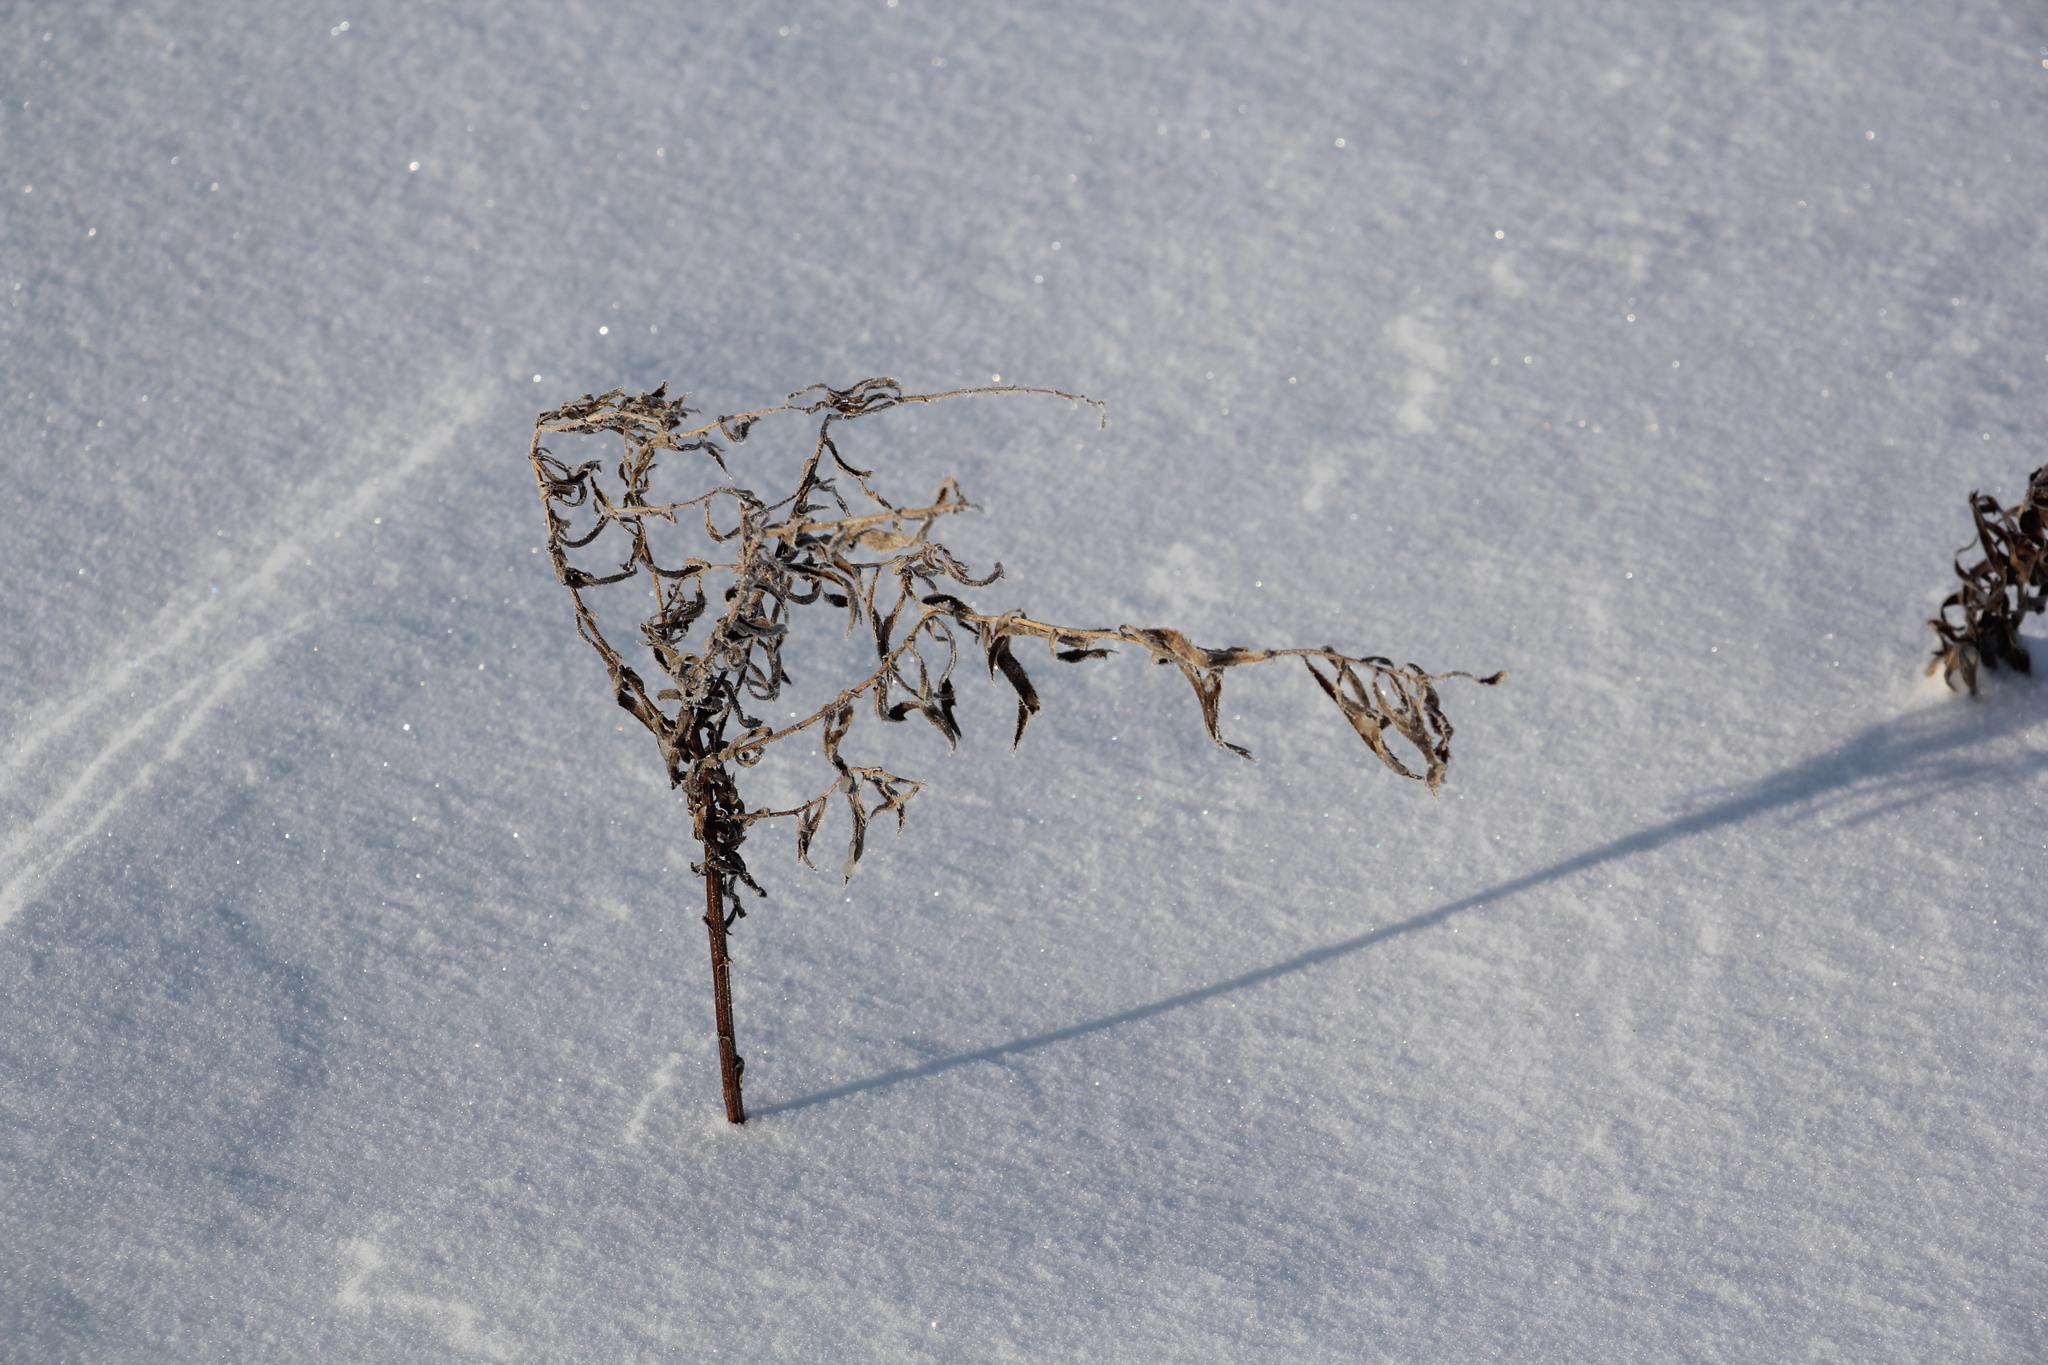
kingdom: Plantae
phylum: Tracheophyta
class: Magnoliopsida
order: Asterales
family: Asteraceae
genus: Achillea
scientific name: Achillea salicifolia
